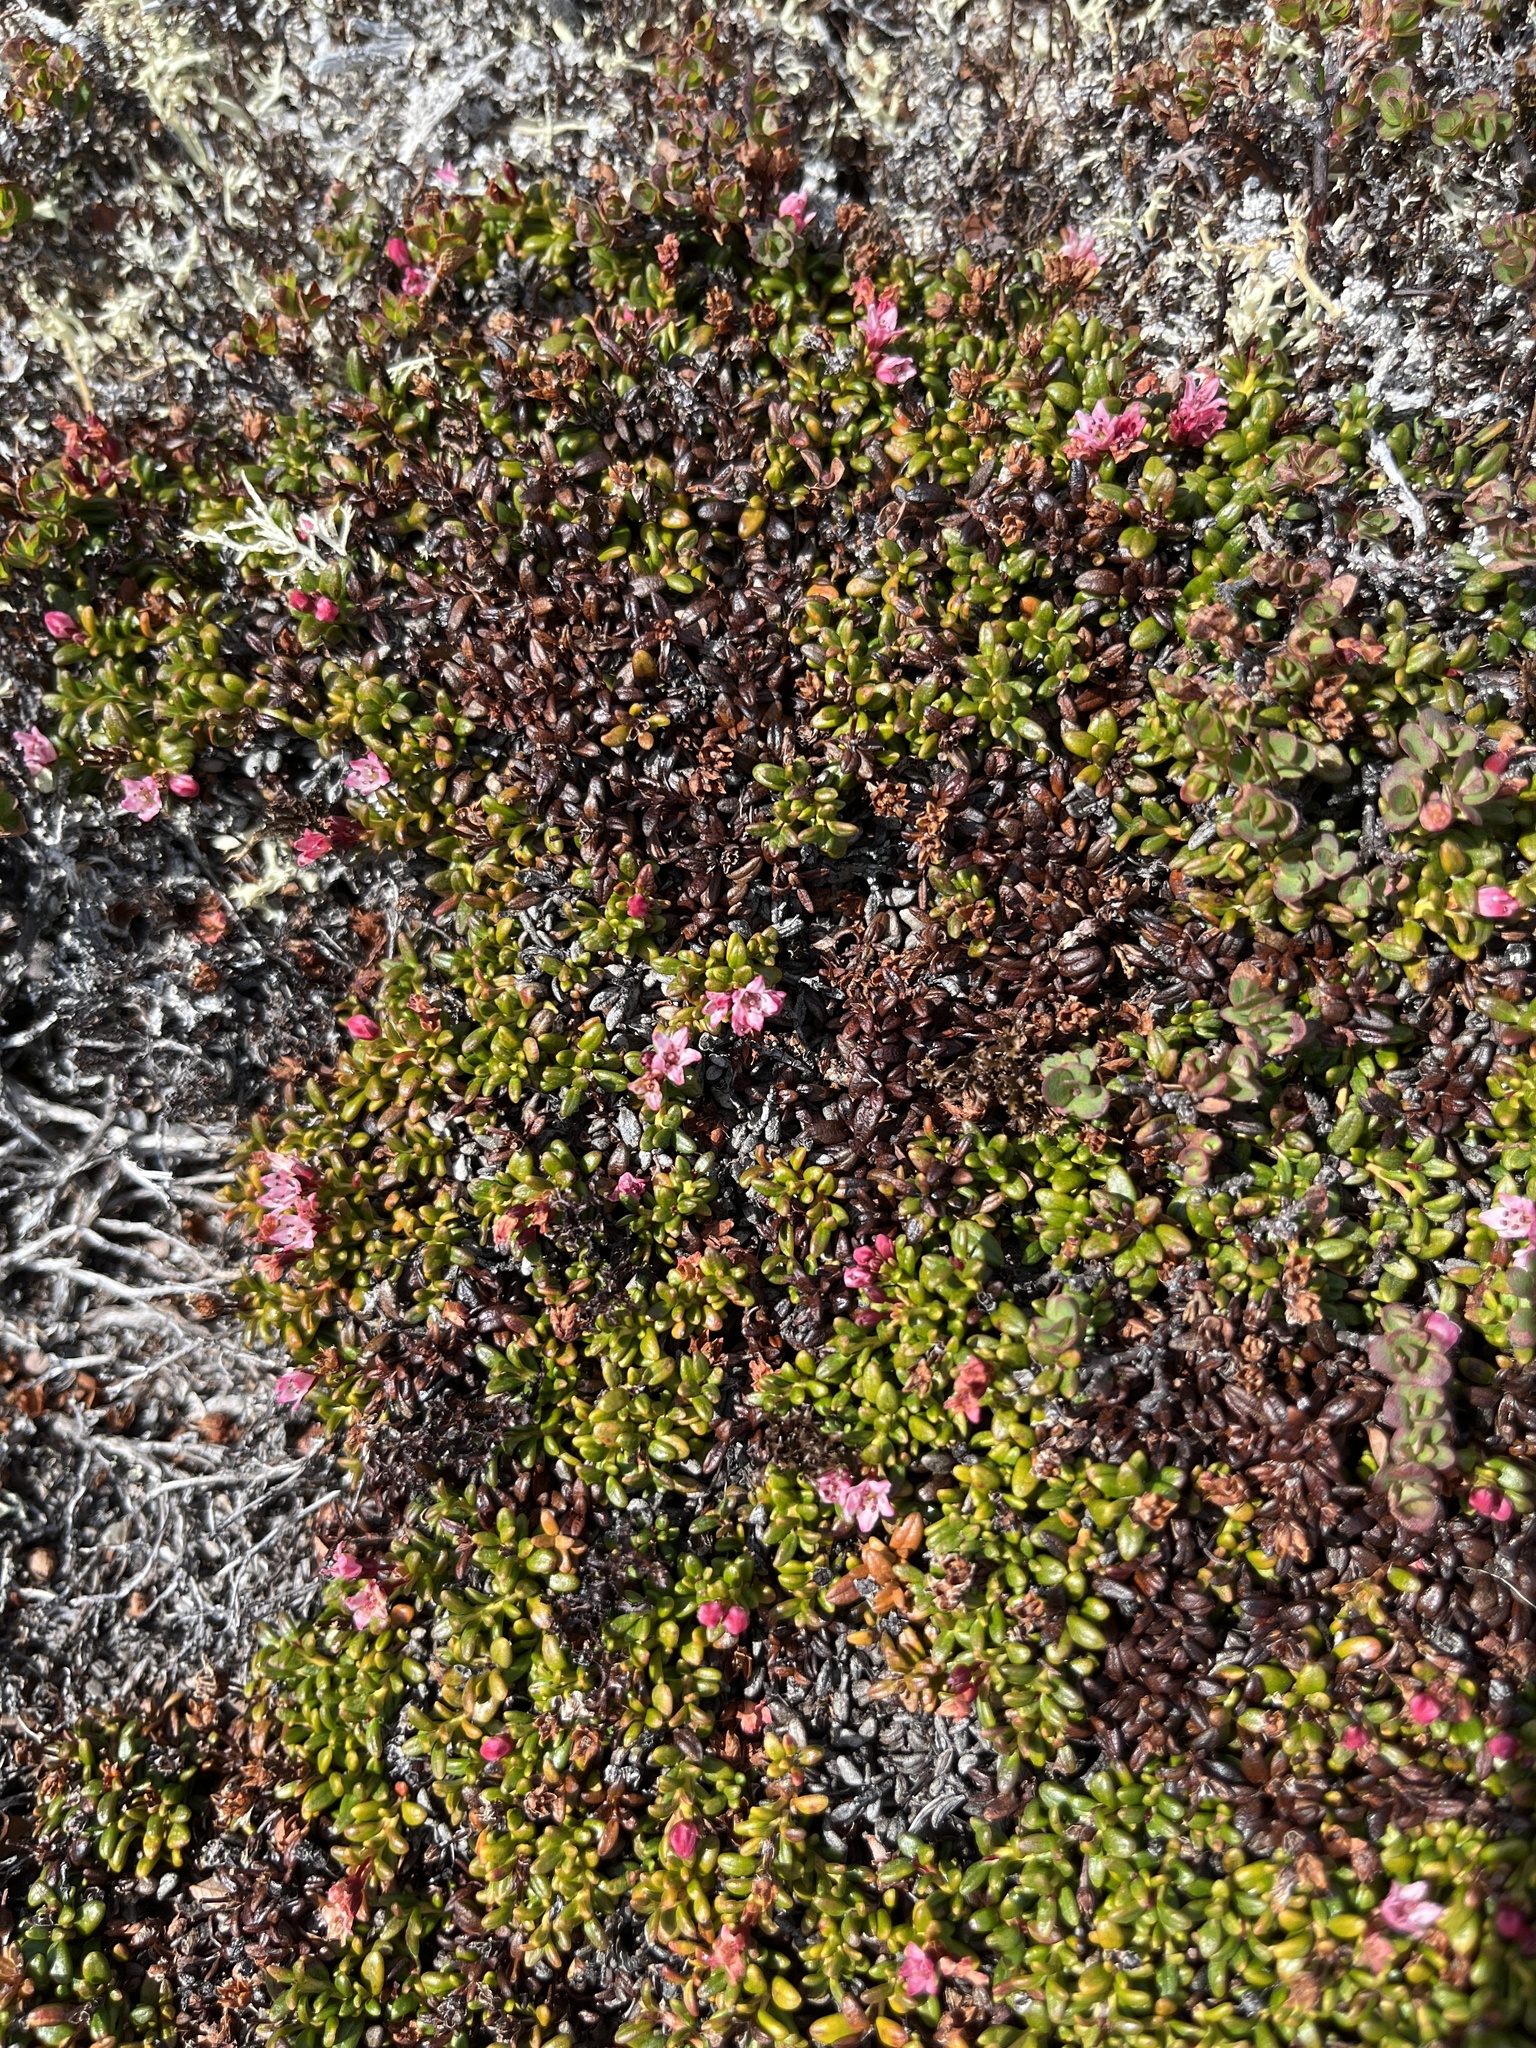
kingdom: Plantae
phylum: Tracheophyta
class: Magnoliopsida
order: Ericales
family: Ericaceae
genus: Kalmia
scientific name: Kalmia procumbens
